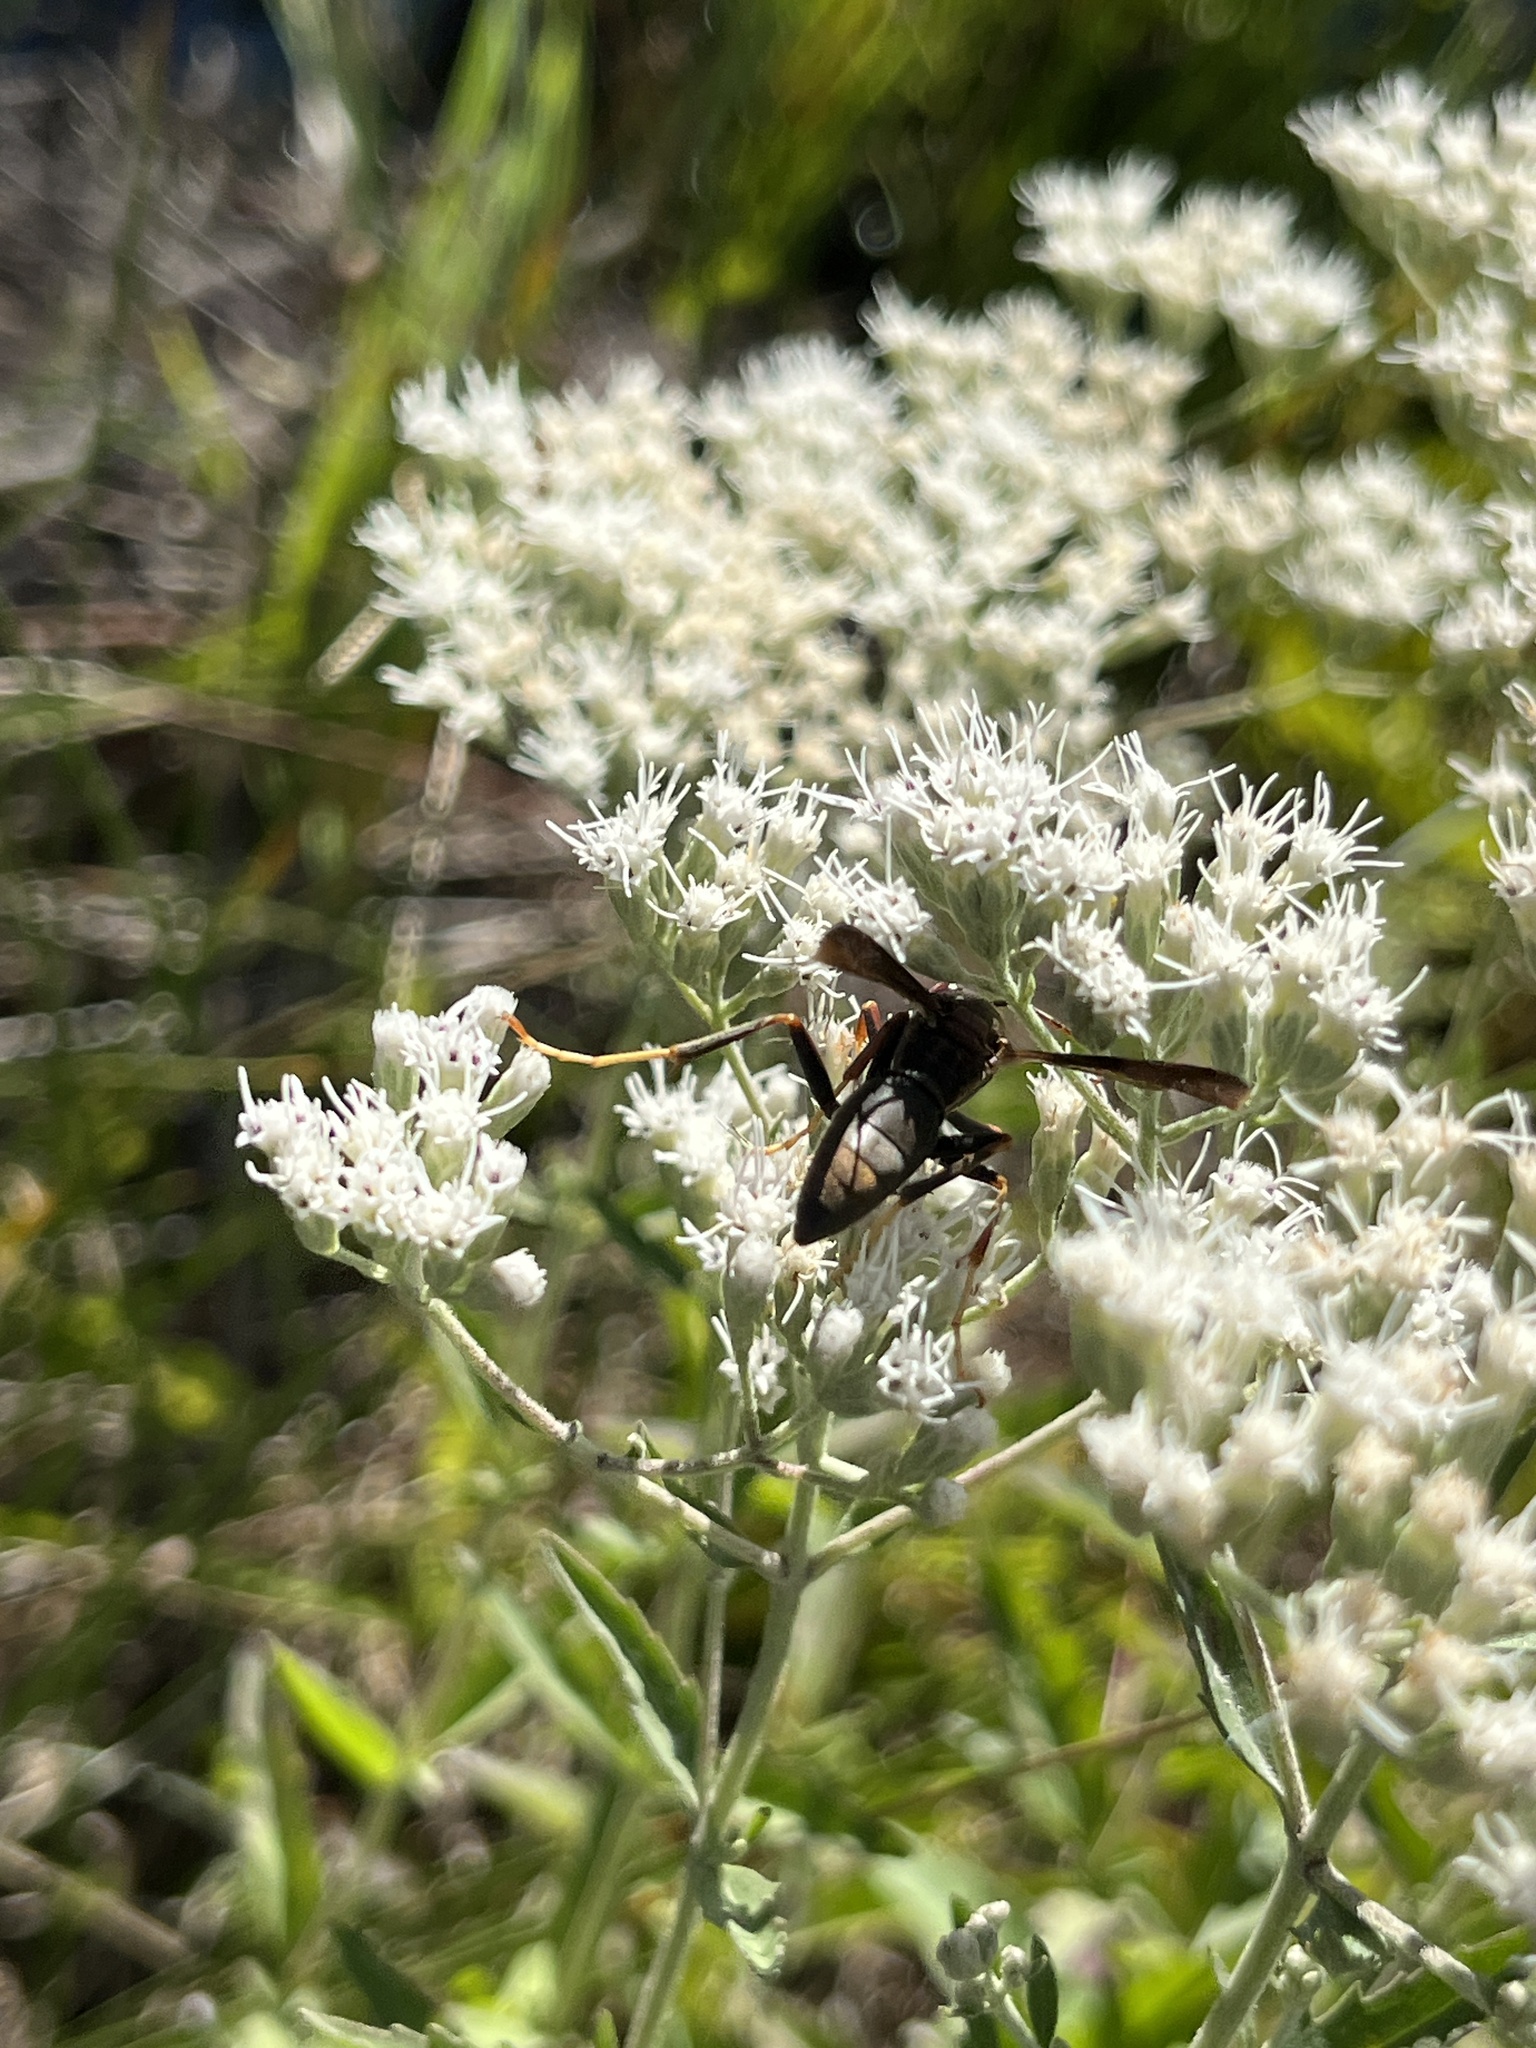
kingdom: Animalia
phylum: Arthropoda
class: Insecta
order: Hymenoptera
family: Eumenidae
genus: Polistes
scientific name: Polistes metricus
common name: Metric paper wasp
